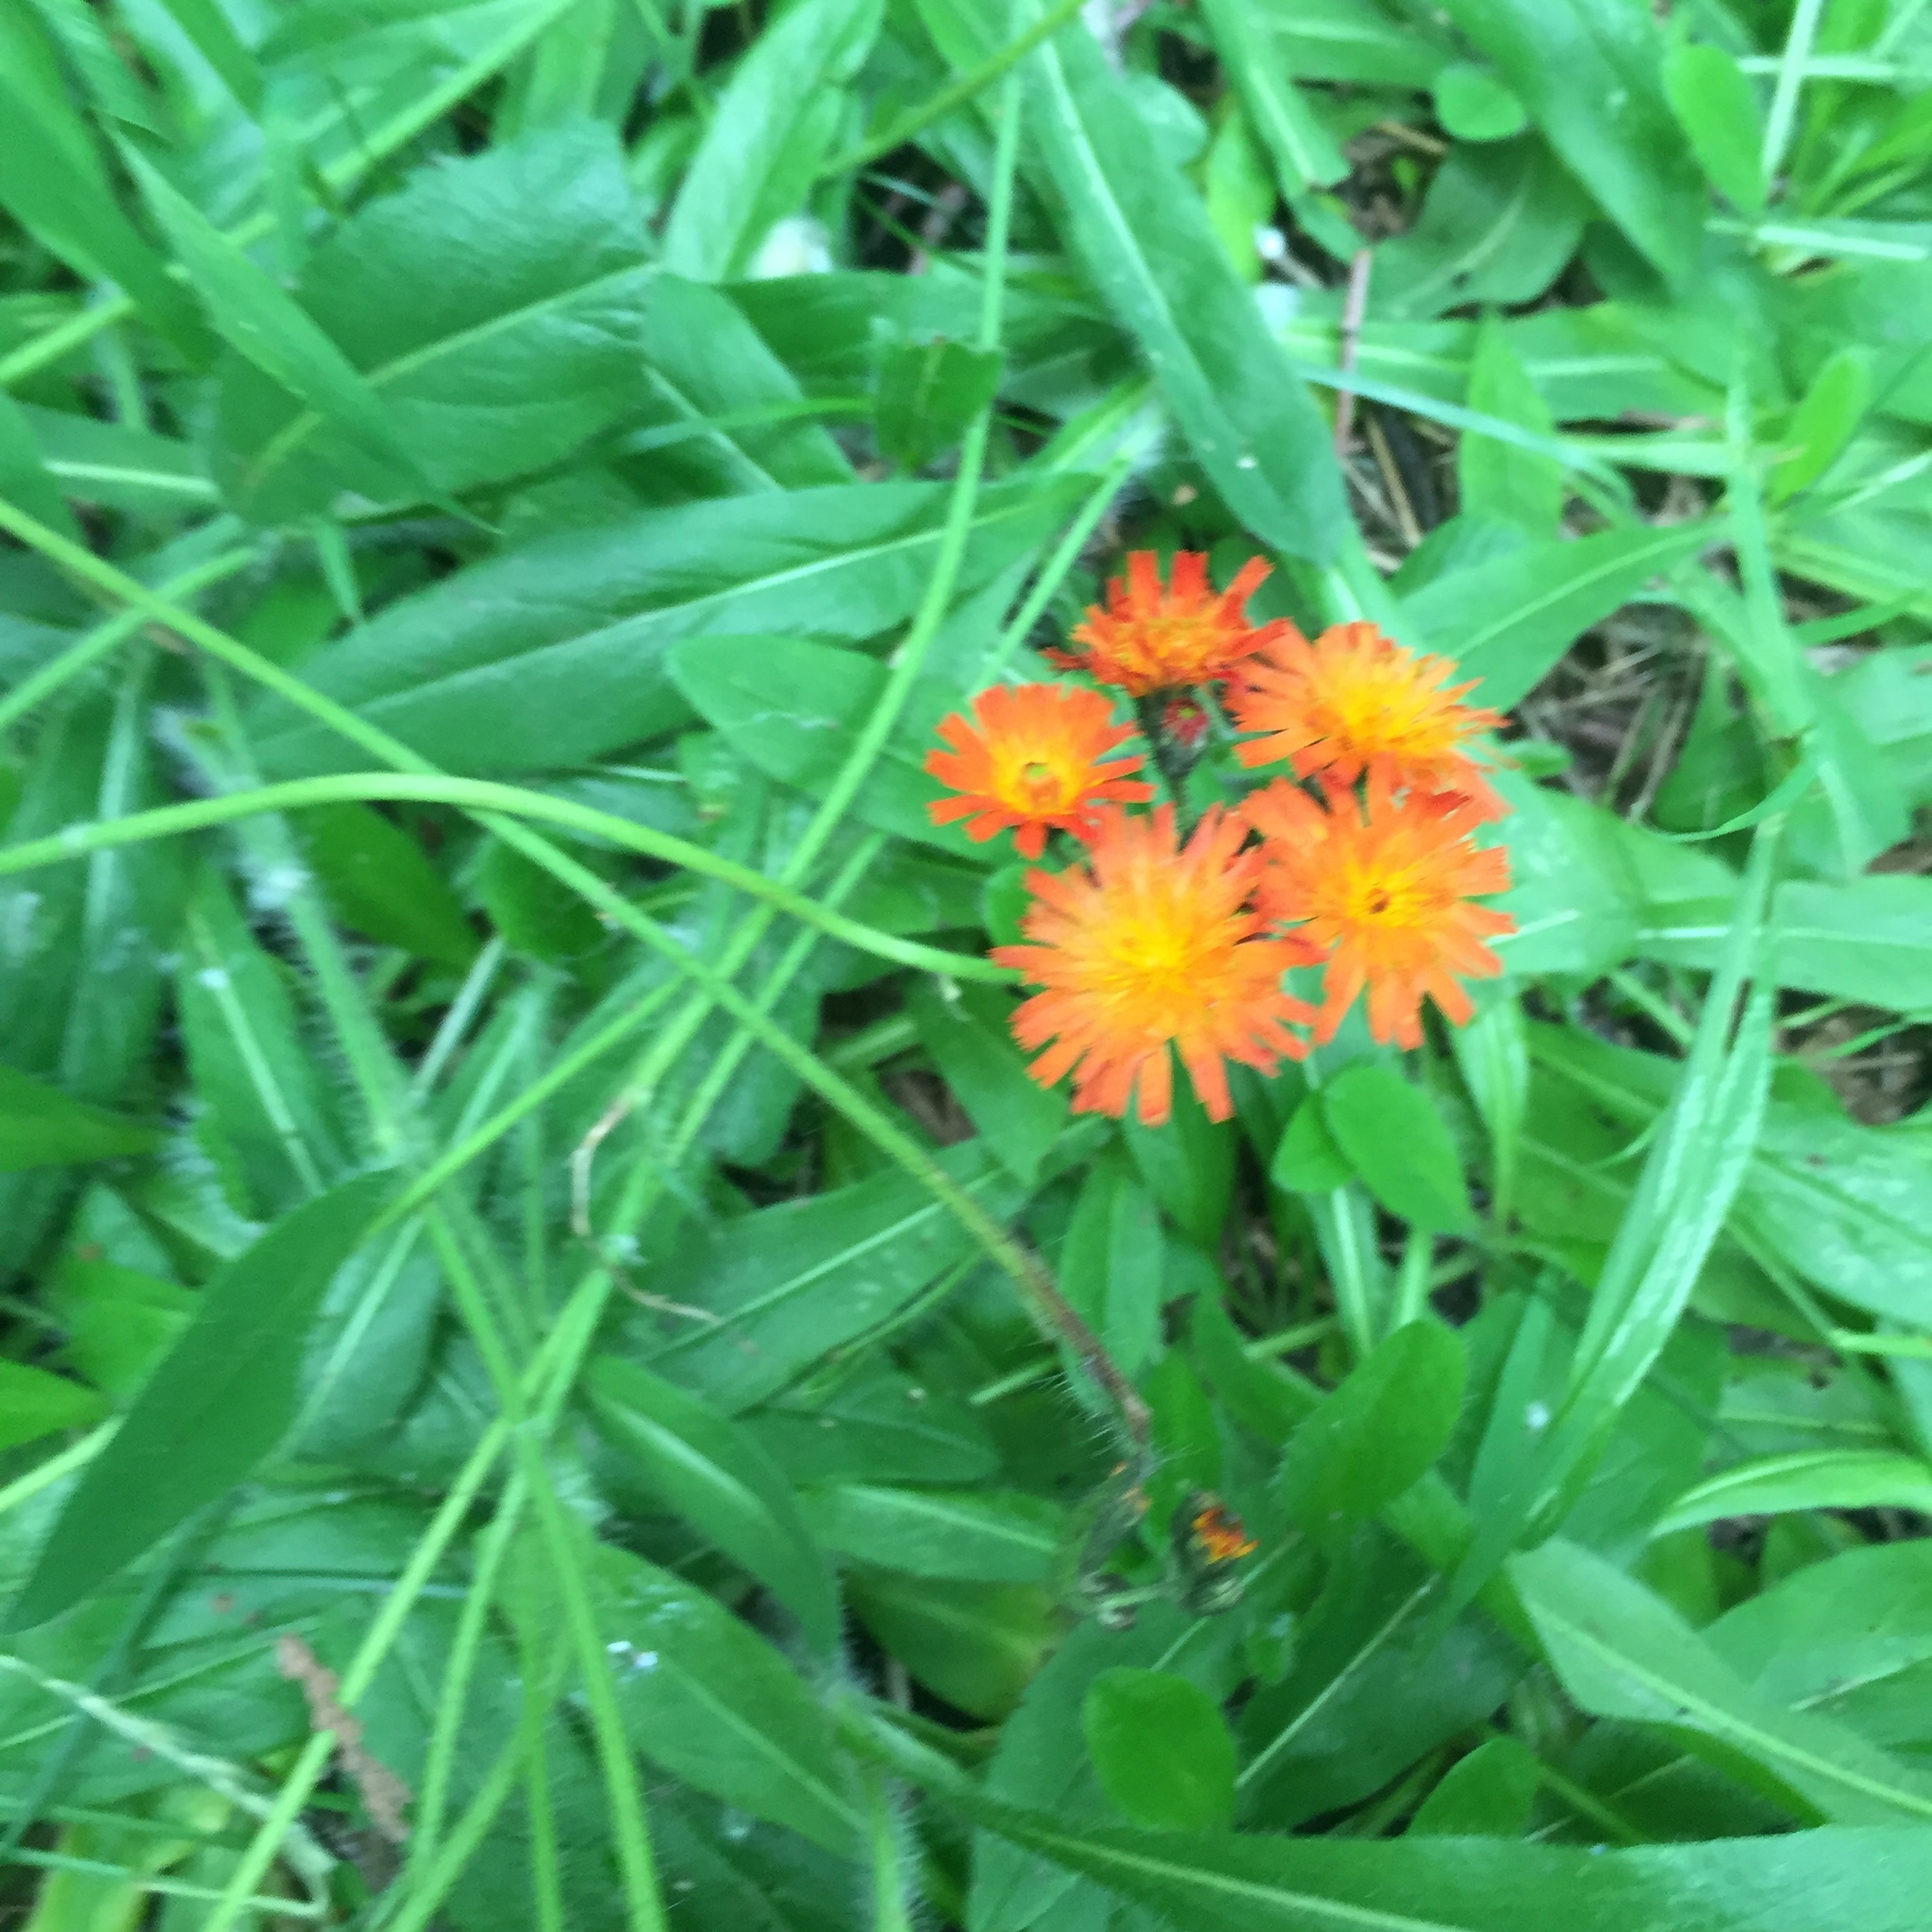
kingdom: Plantae
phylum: Tracheophyta
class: Magnoliopsida
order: Asterales
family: Asteraceae
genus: Pilosella
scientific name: Pilosella aurantiaca
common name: Fox-and-cubs
